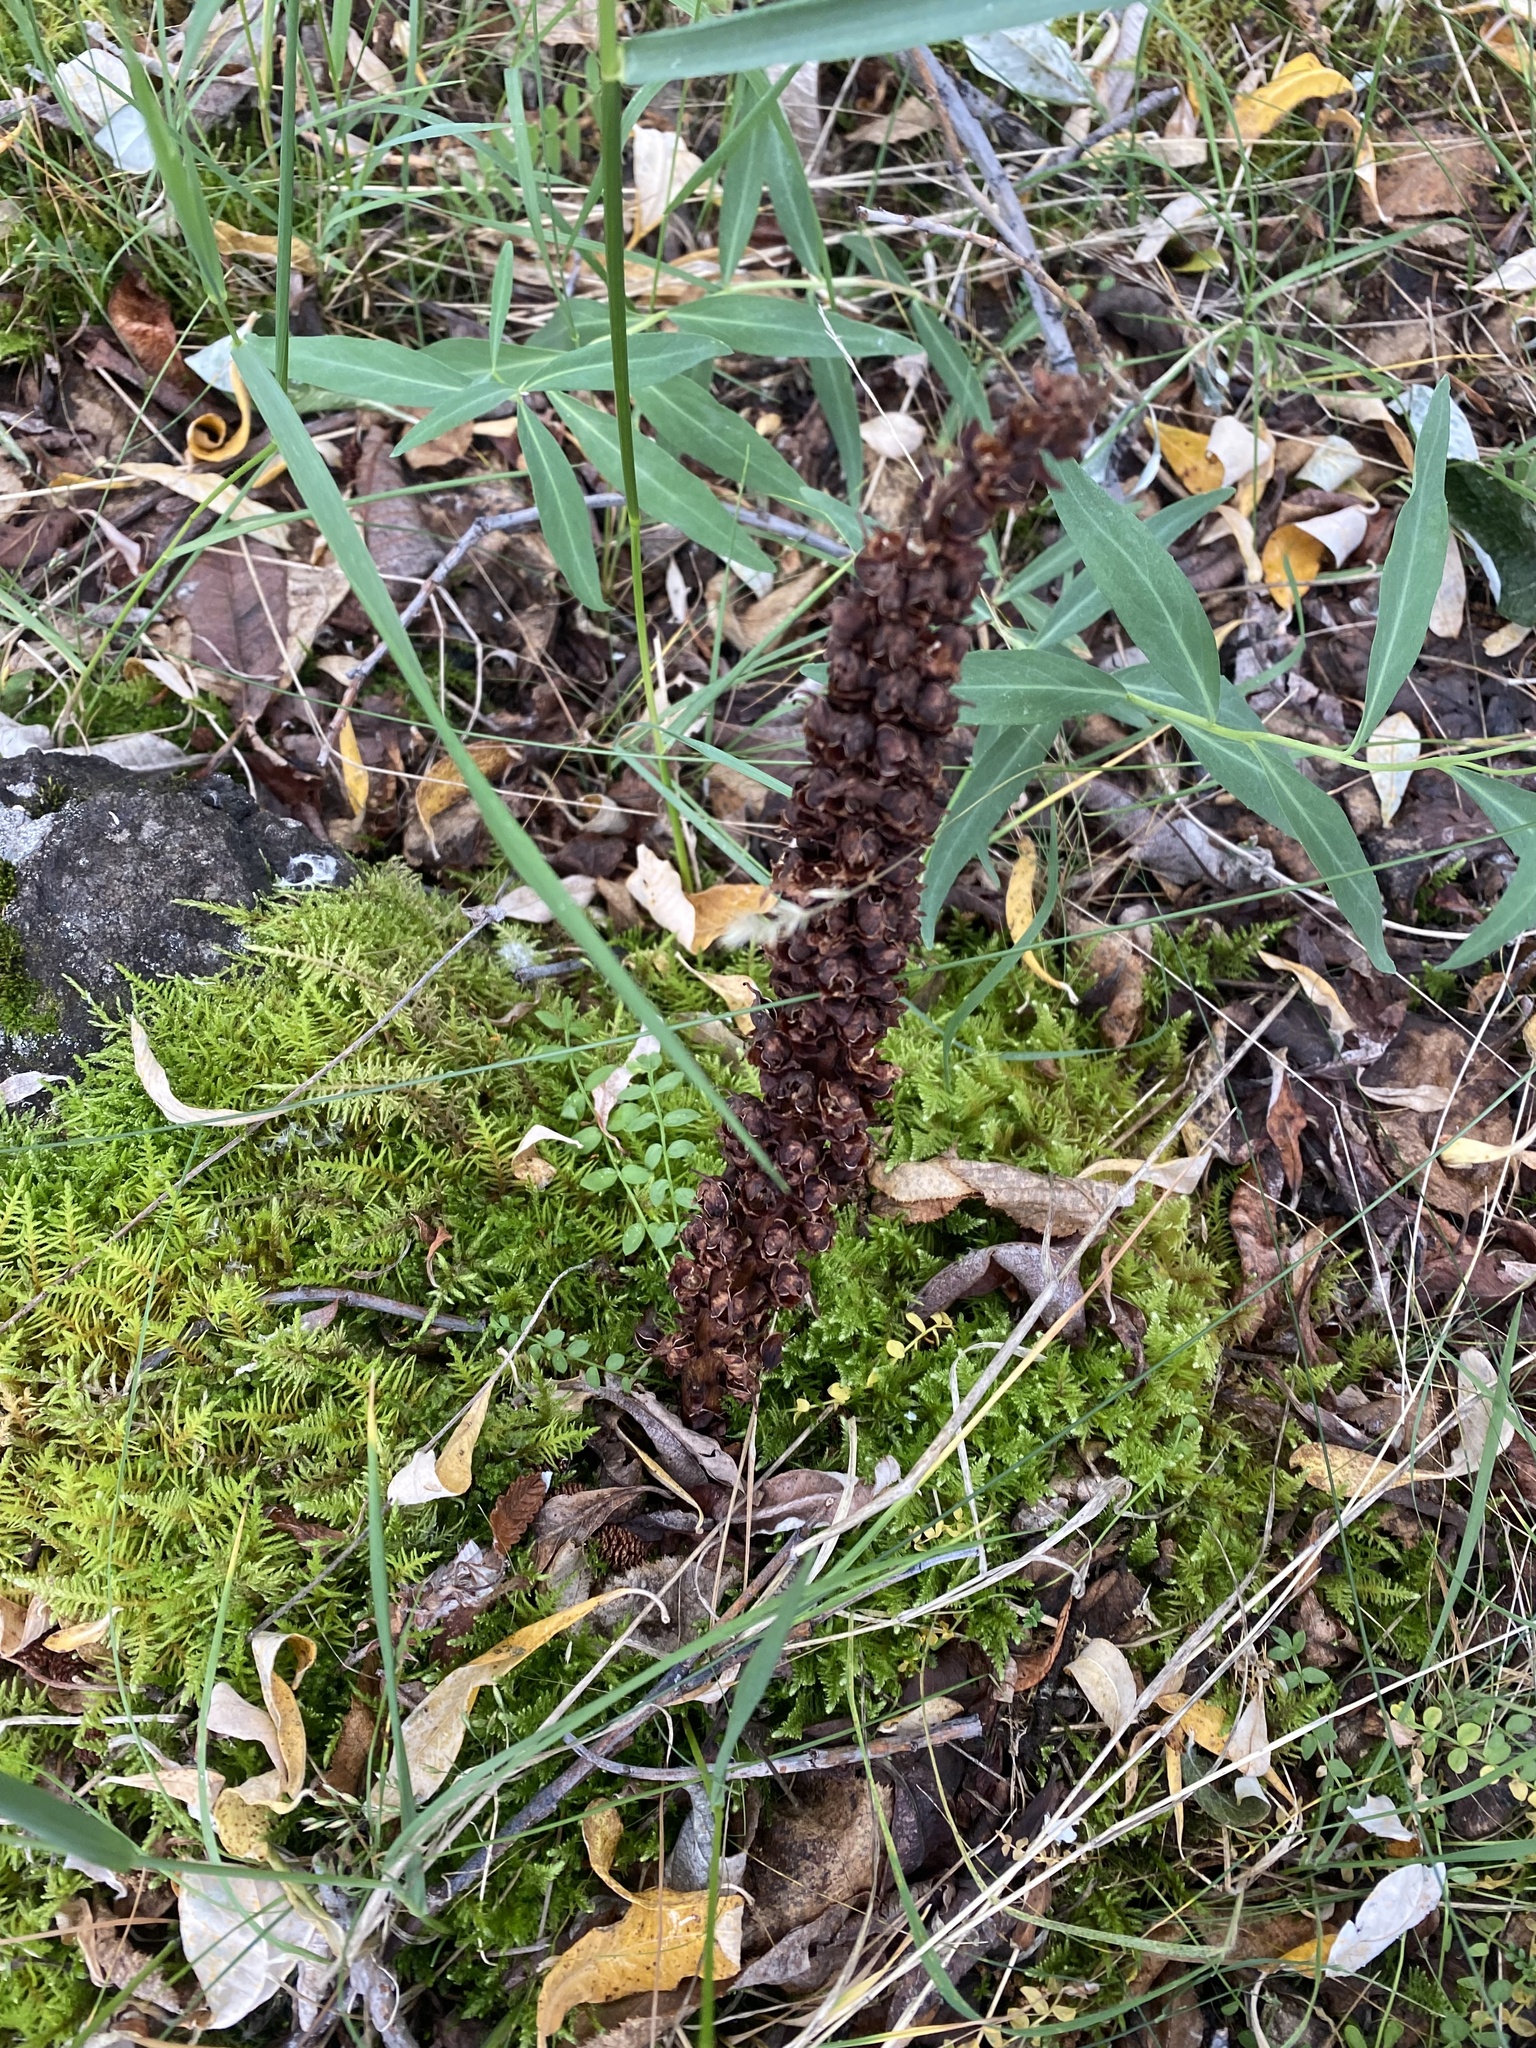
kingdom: Plantae
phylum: Tracheophyta
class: Magnoliopsida
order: Lamiales
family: Orobanchaceae
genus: Boschniakia
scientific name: Boschniakia rossica
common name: Poque
